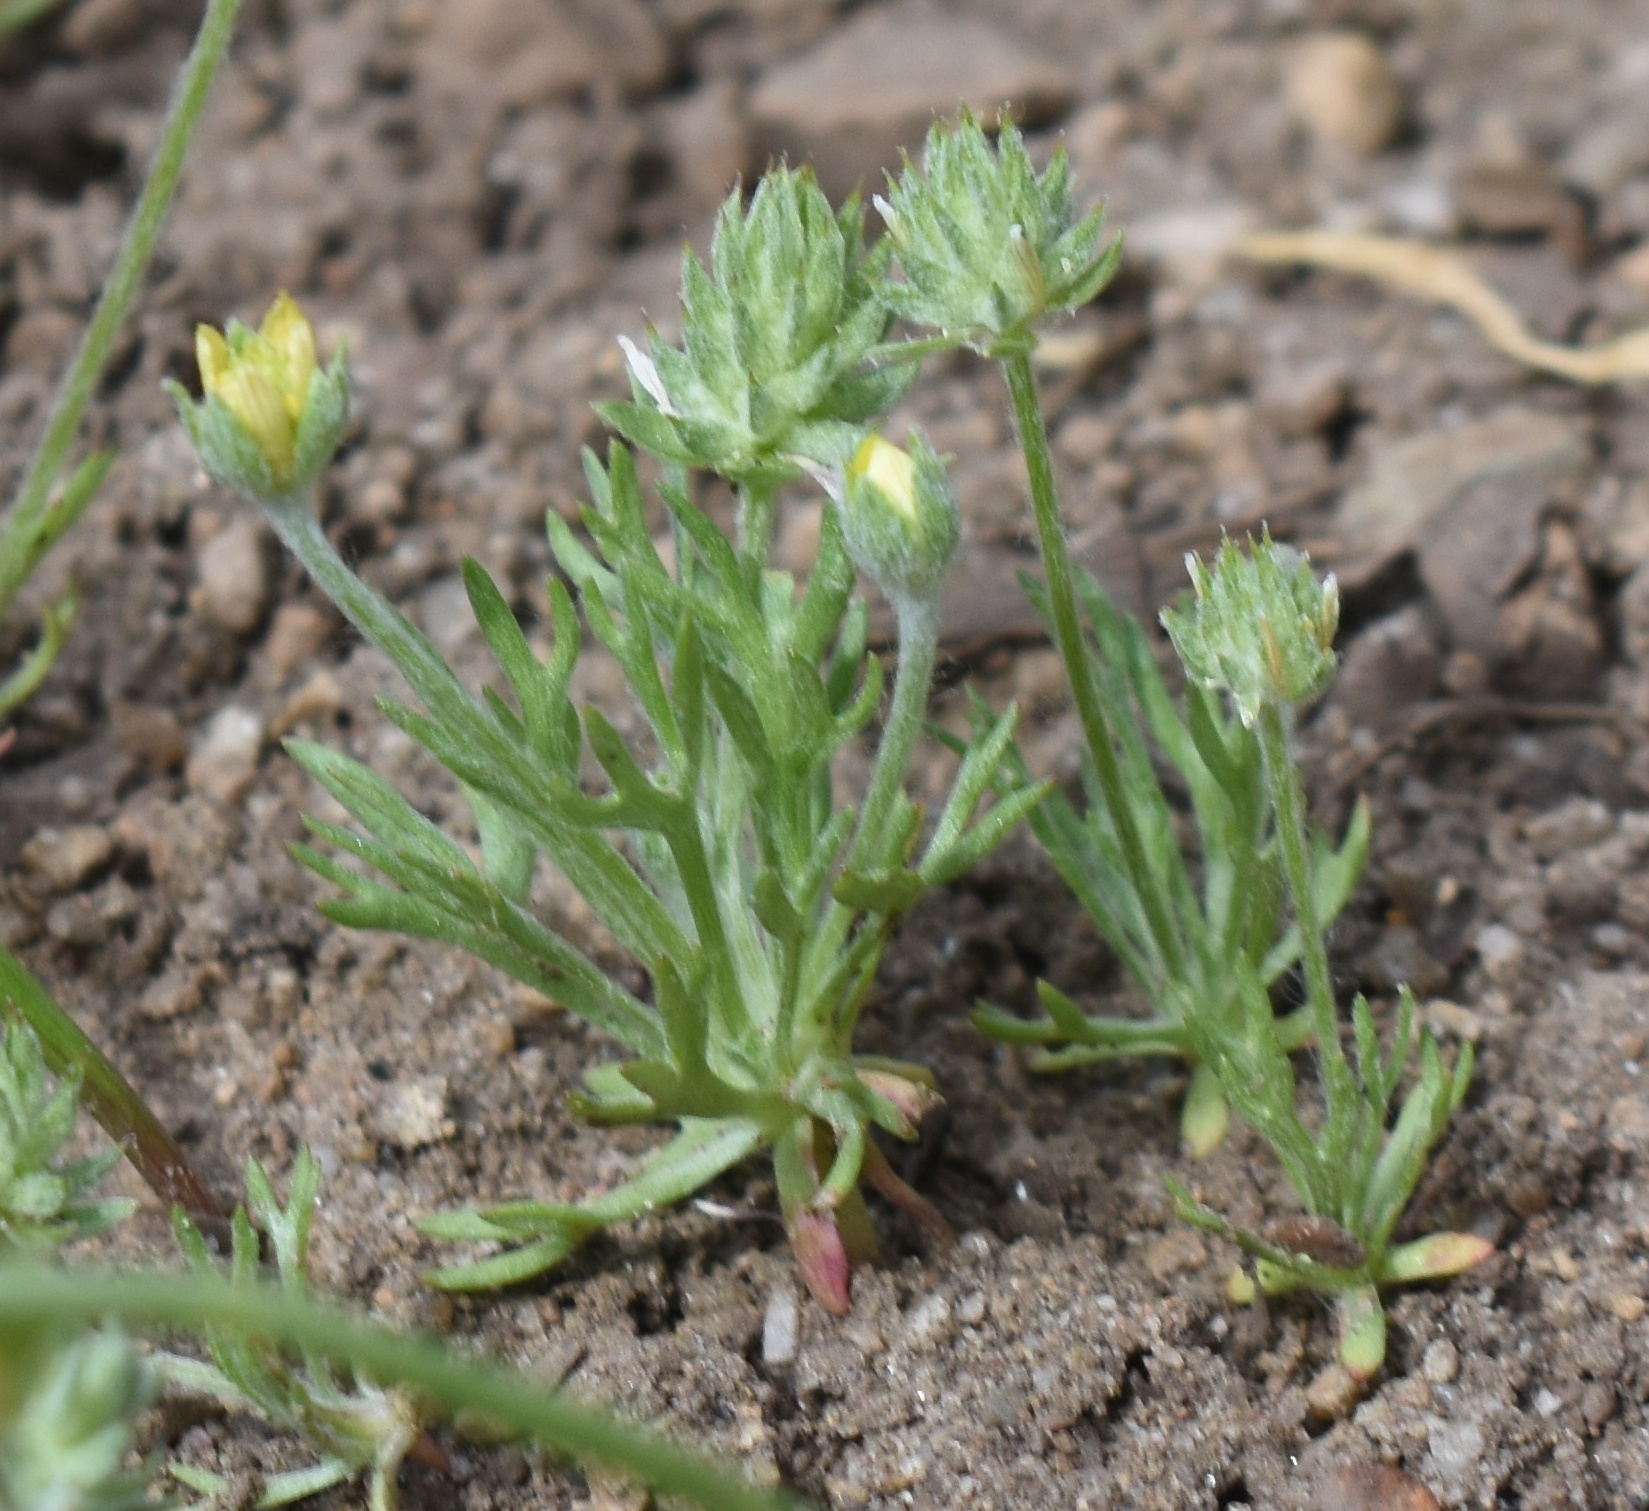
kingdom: Plantae
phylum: Tracheophyta
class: Magnoliopsida
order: Ranunculales
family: Ranunculaceae
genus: Ceratocephala
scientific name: Ceratocephala orthoceras
